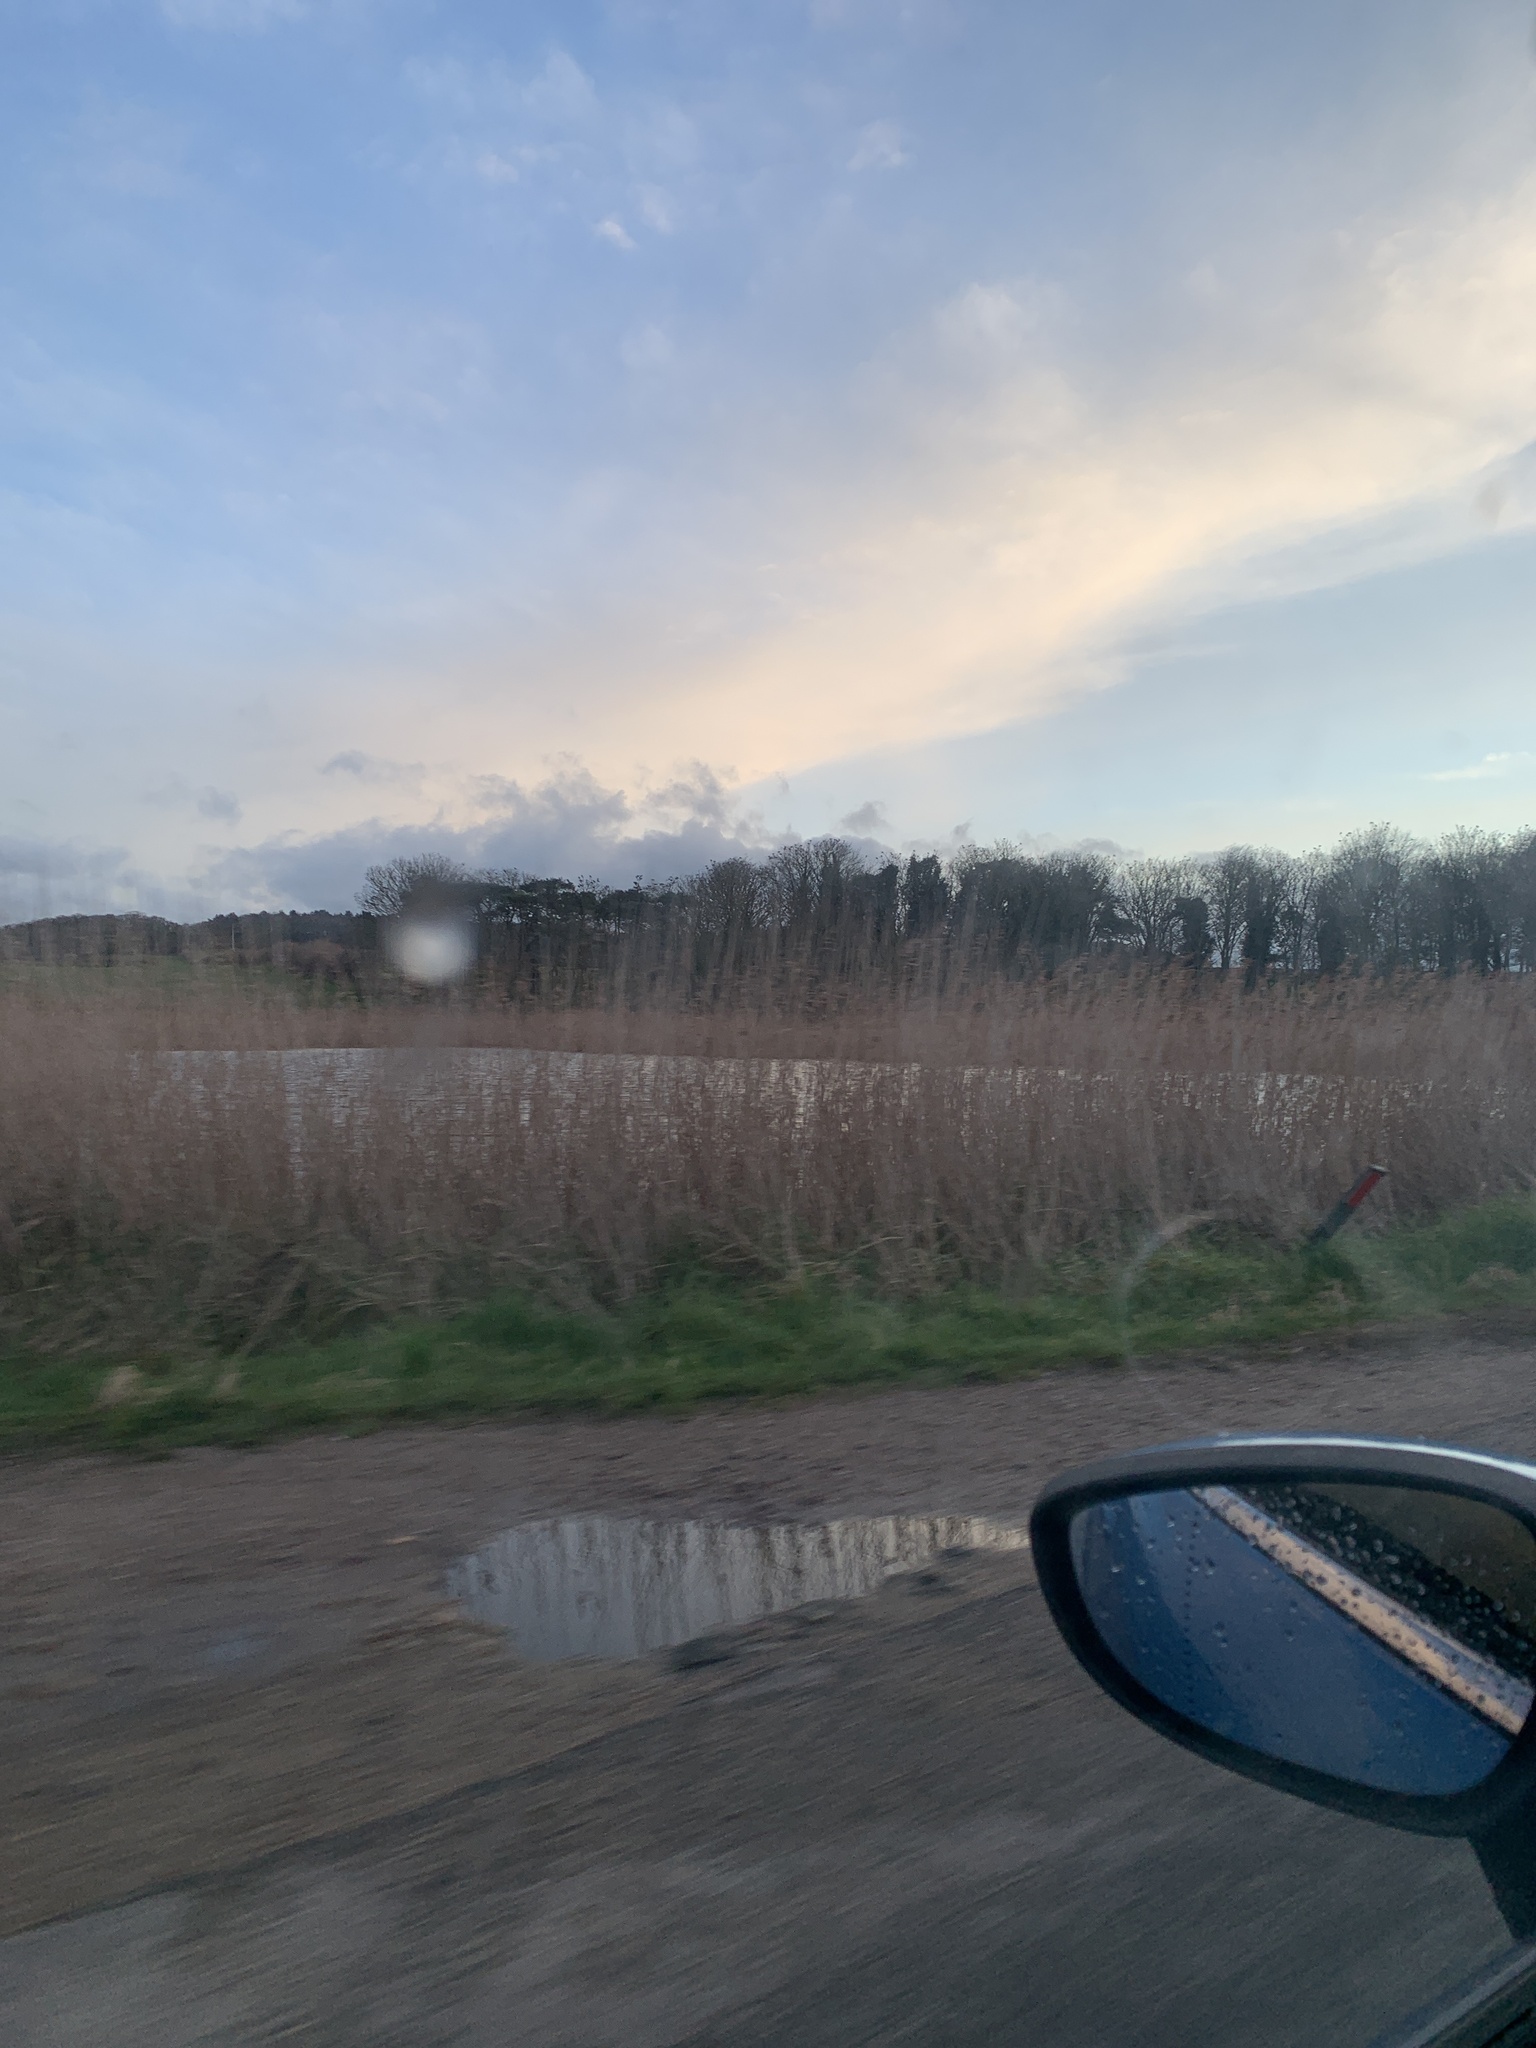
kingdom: Plantae
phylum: Tracheophyta
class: Liliopsida
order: Poales
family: Poaceae
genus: Phragmites
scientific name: Phragmites australis
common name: Common reed
